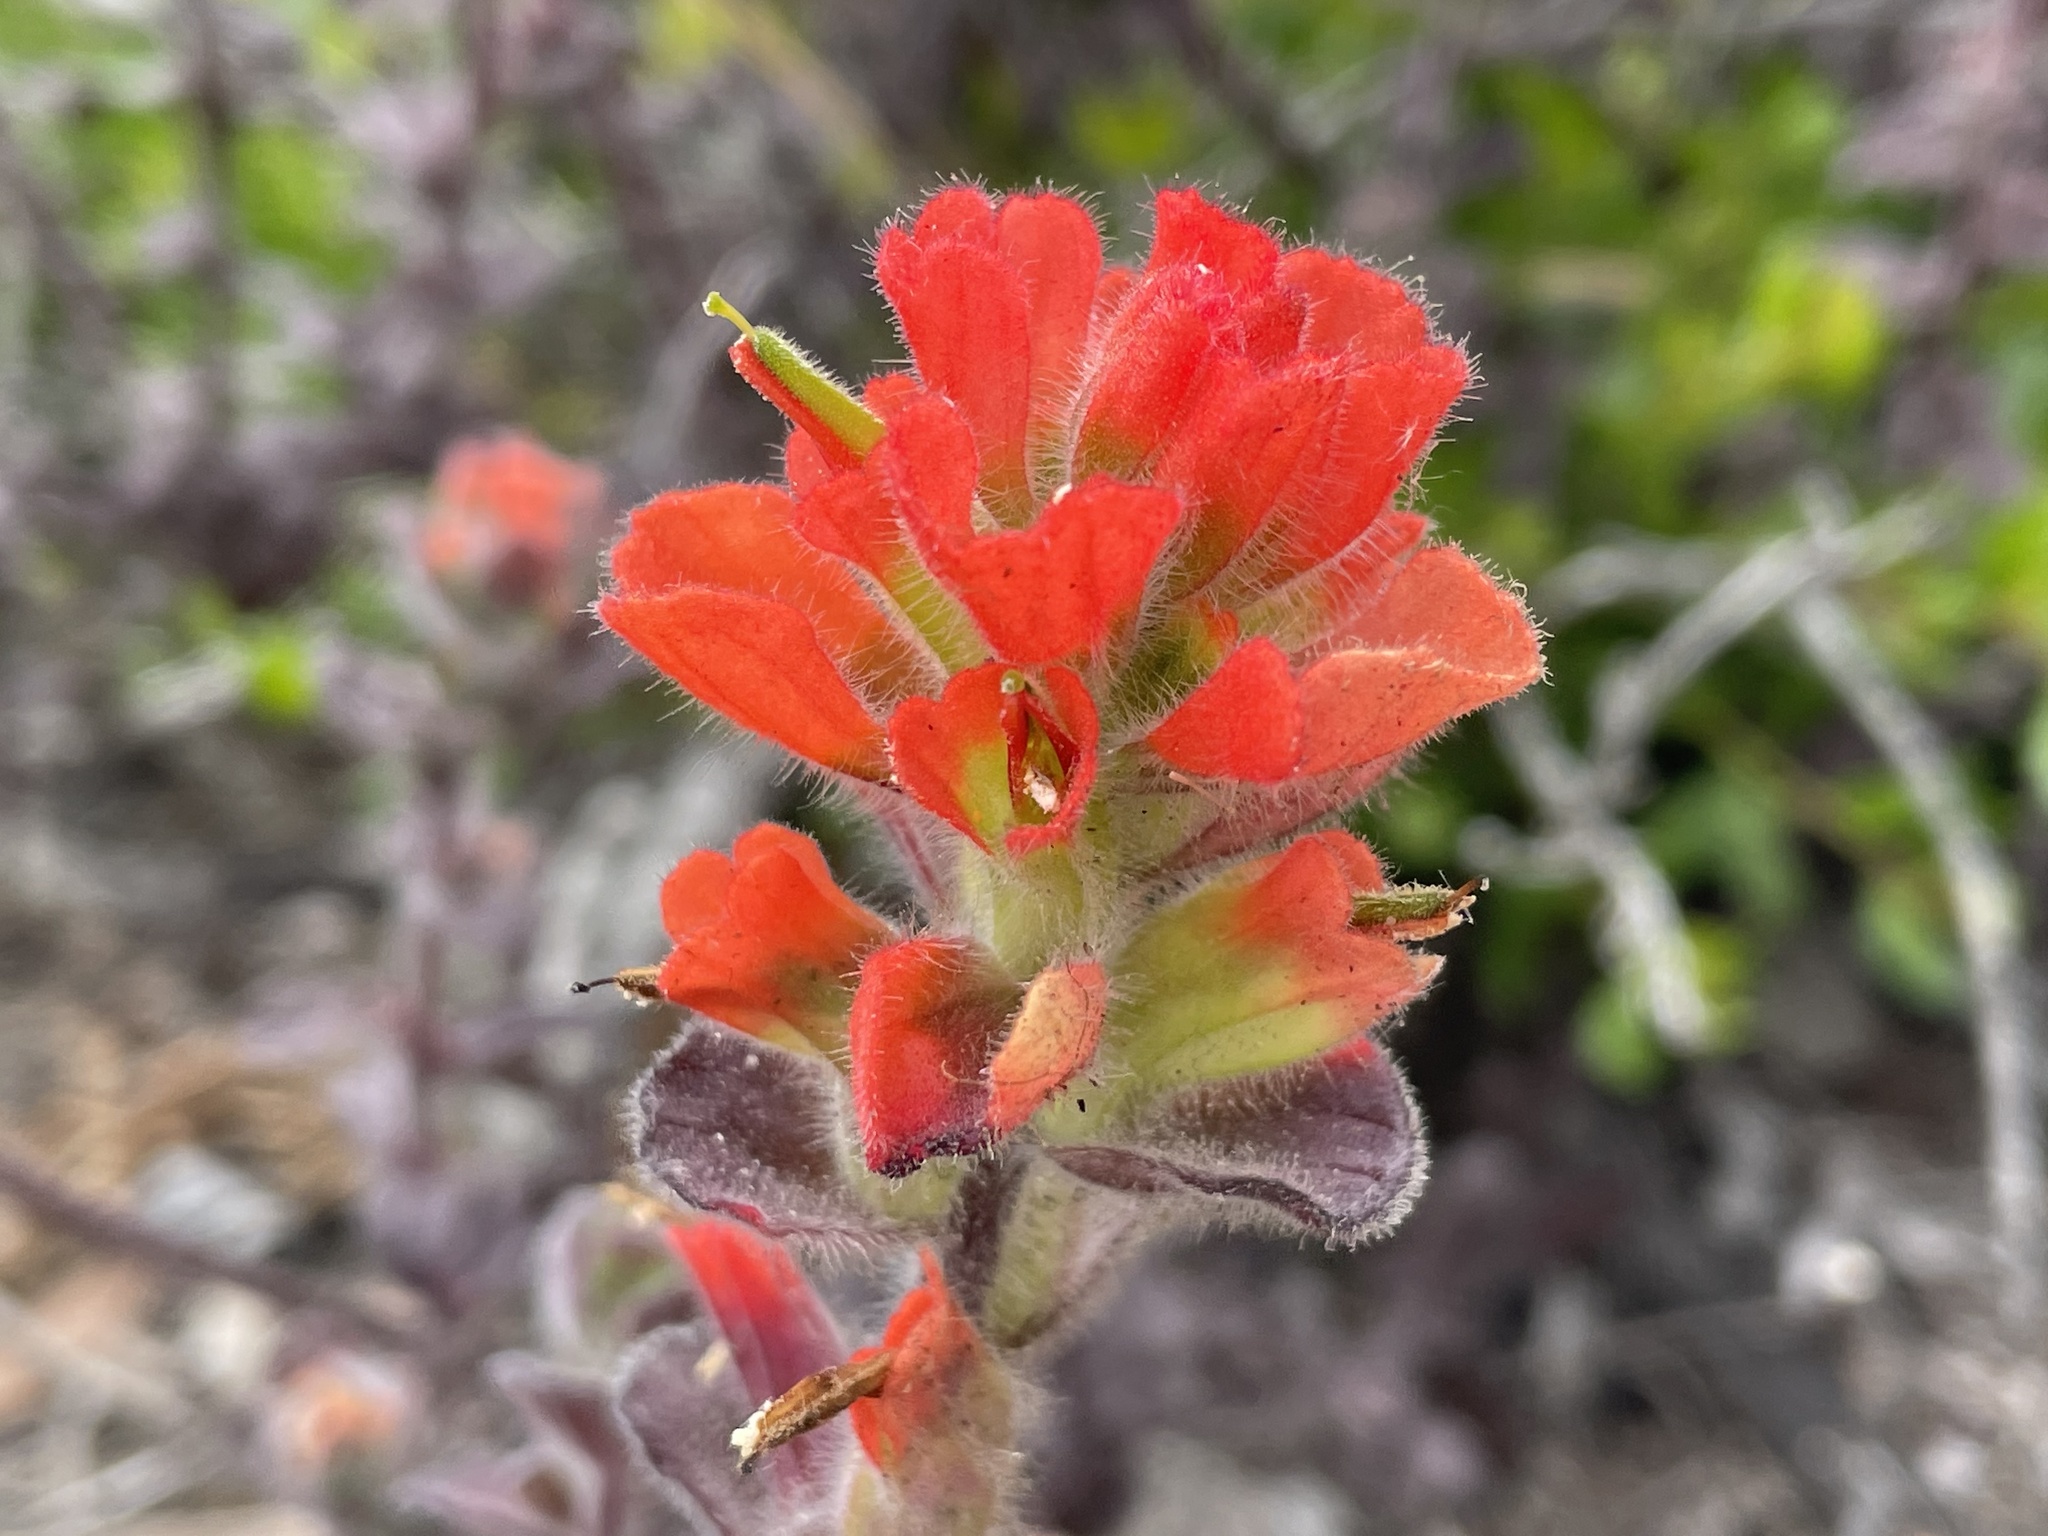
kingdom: Plantae
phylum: Tracheophyta
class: Magnoliopsida
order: Lamiales
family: Orobanchaceae
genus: Castilleja
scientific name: Castilleja latifolia
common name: Monterey indian paintbrush
